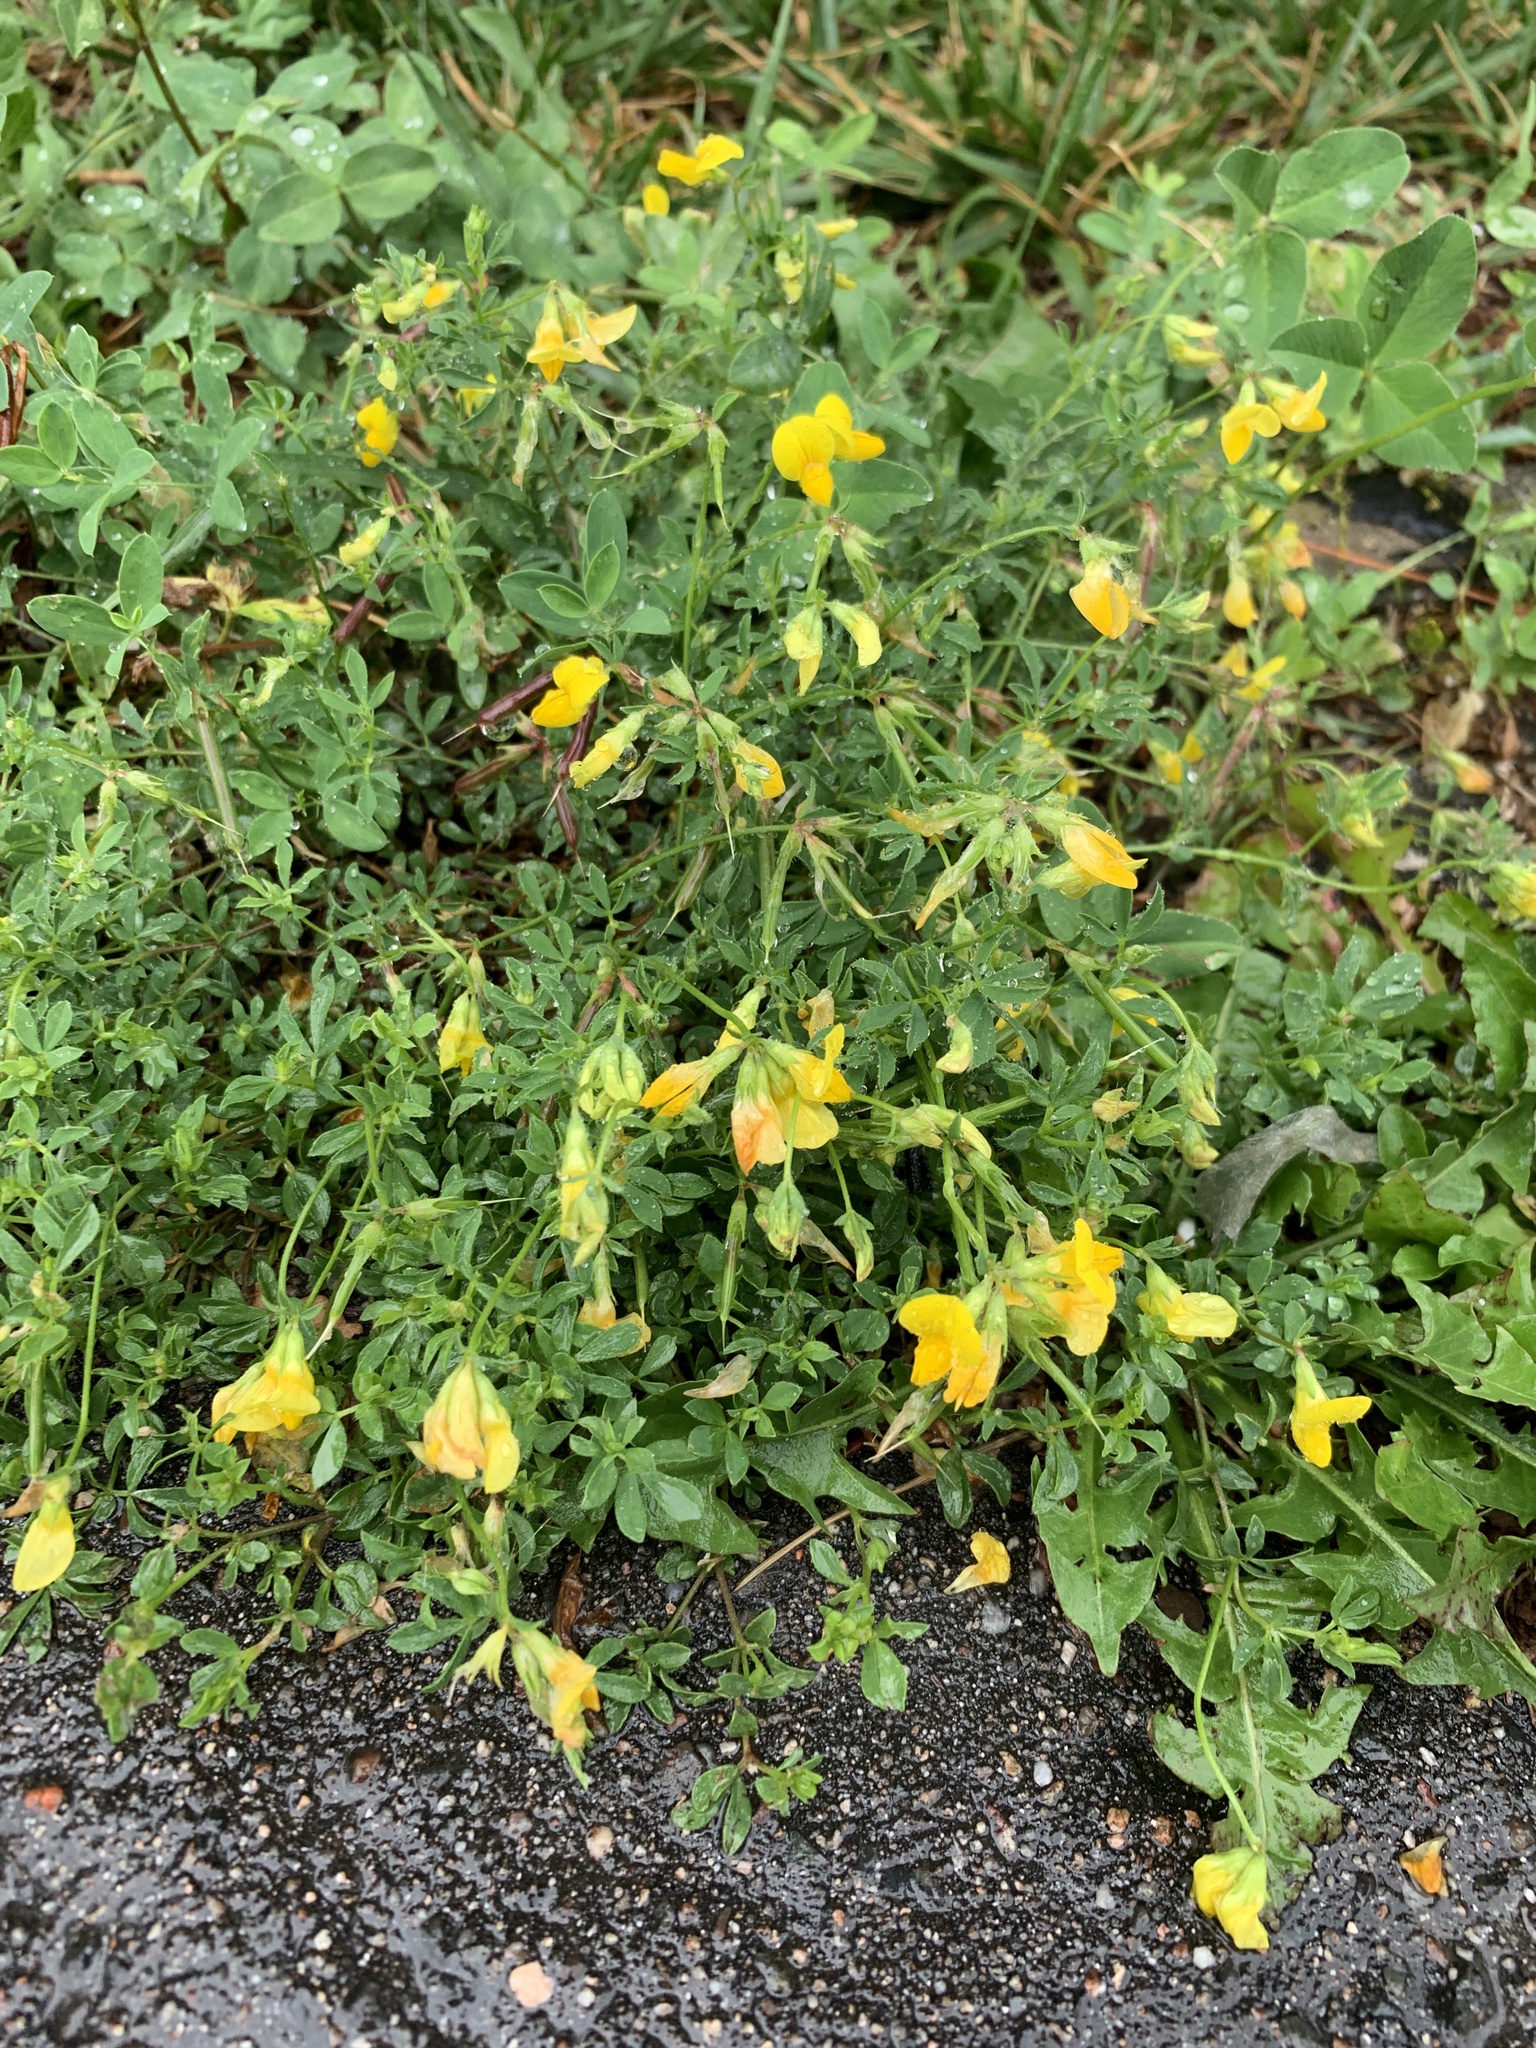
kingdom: Plantae
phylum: Tracheophyta
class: Magnoliopsida
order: Fabales
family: Fabaceae
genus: Lotus
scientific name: Lotus corniculatus
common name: Common bird's-foot-trefoil
